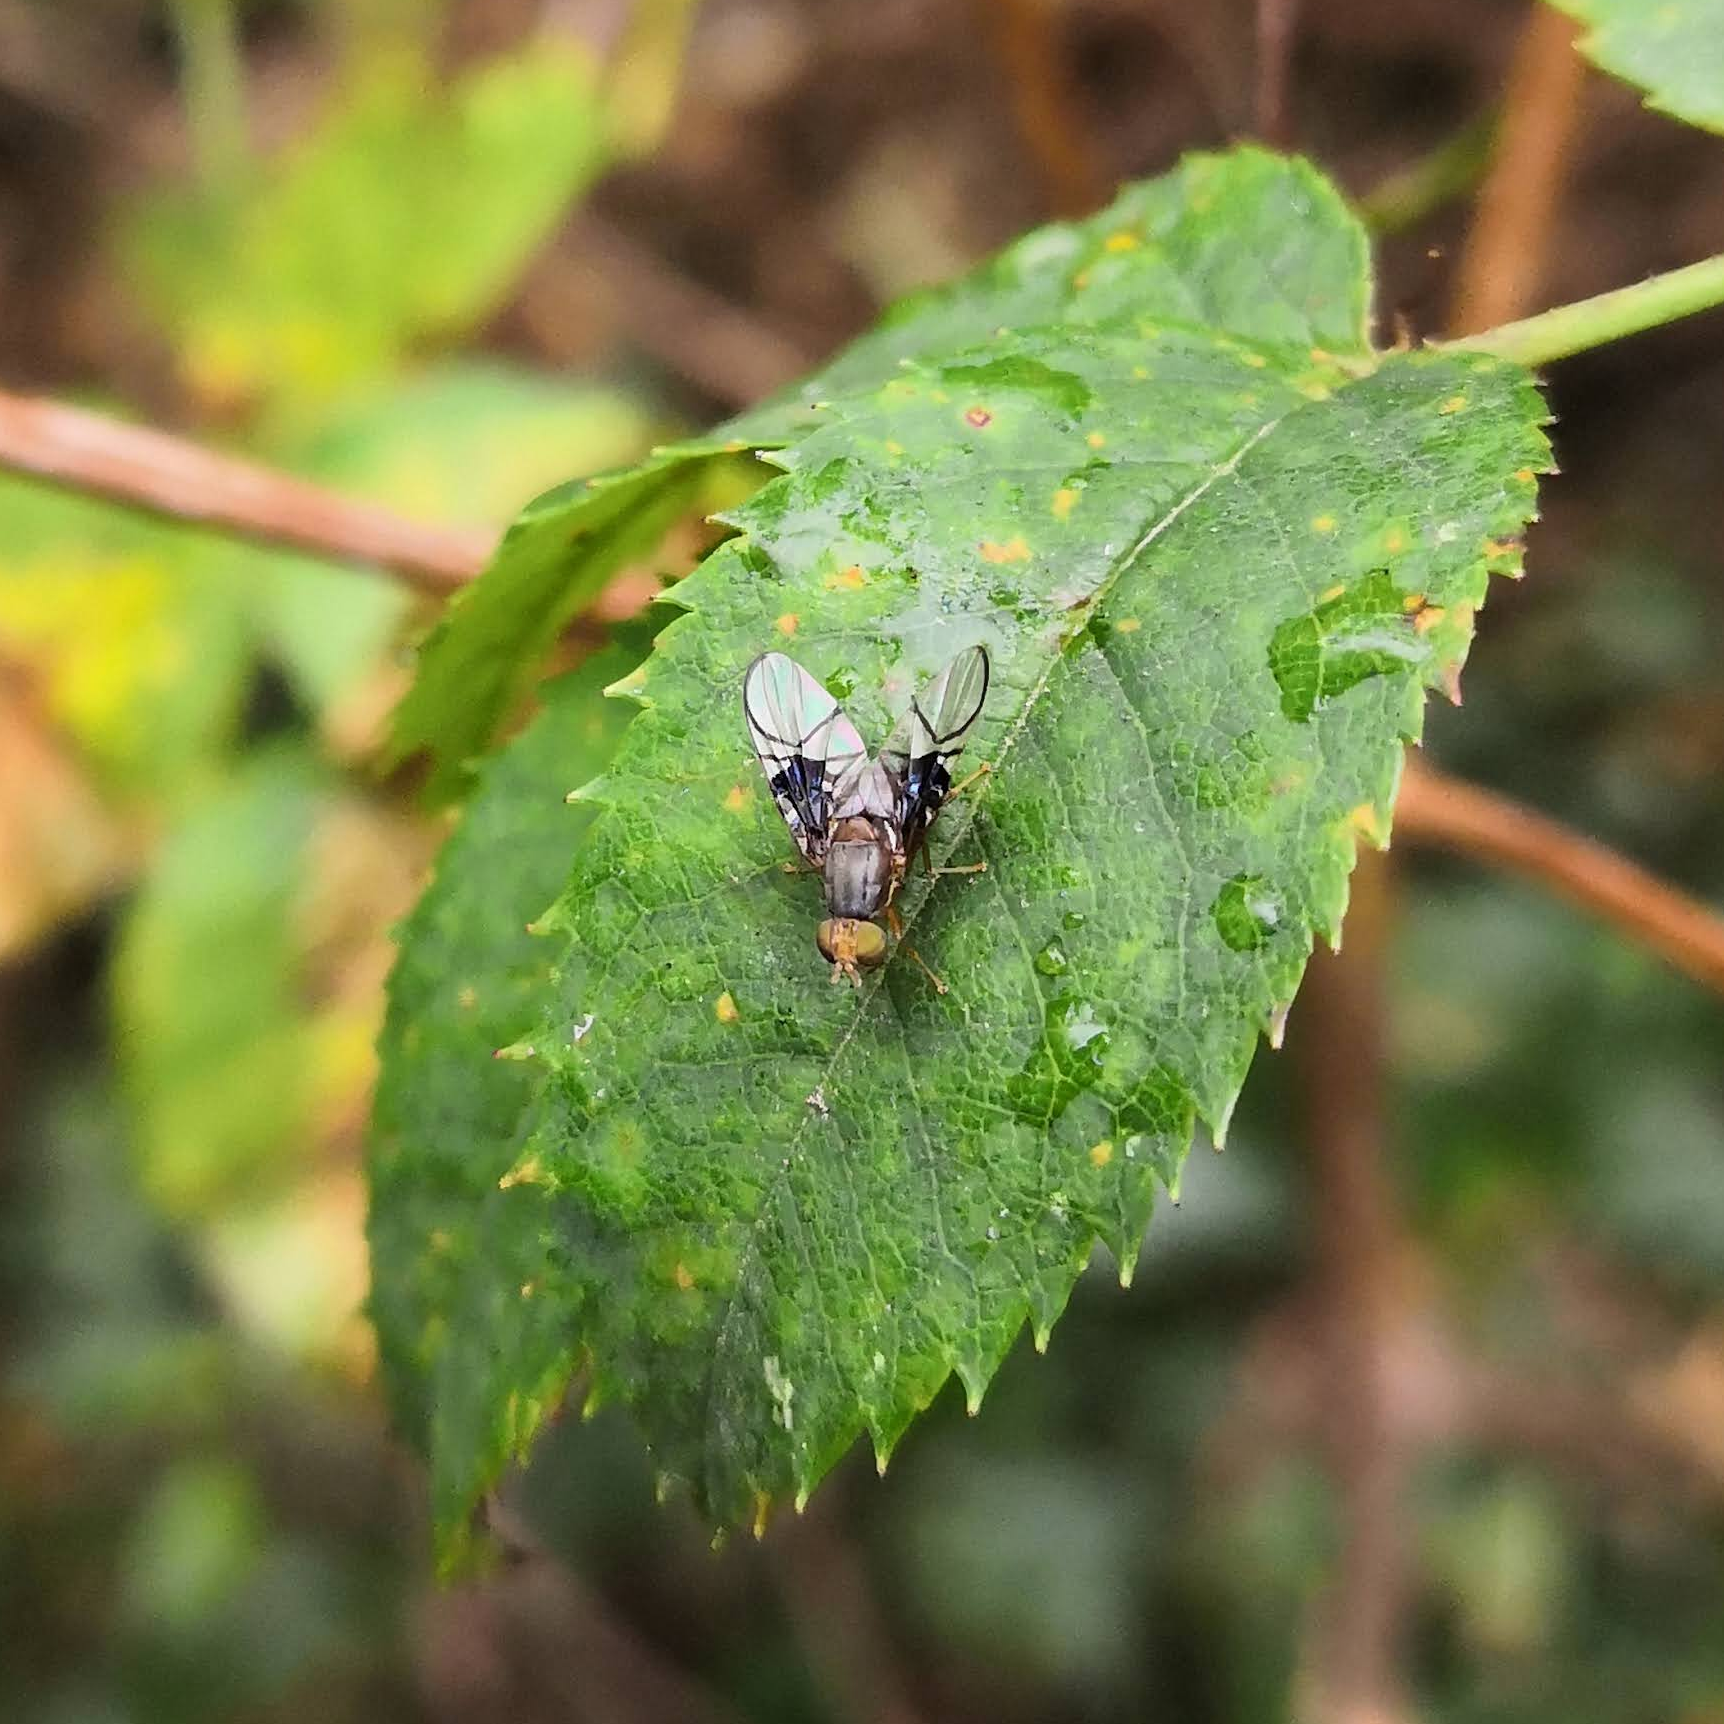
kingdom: Animalia
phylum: Arthropoda
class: Insecta
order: Diptera
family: Tephritidae
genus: Anomoia
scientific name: Anomoia purmunda
